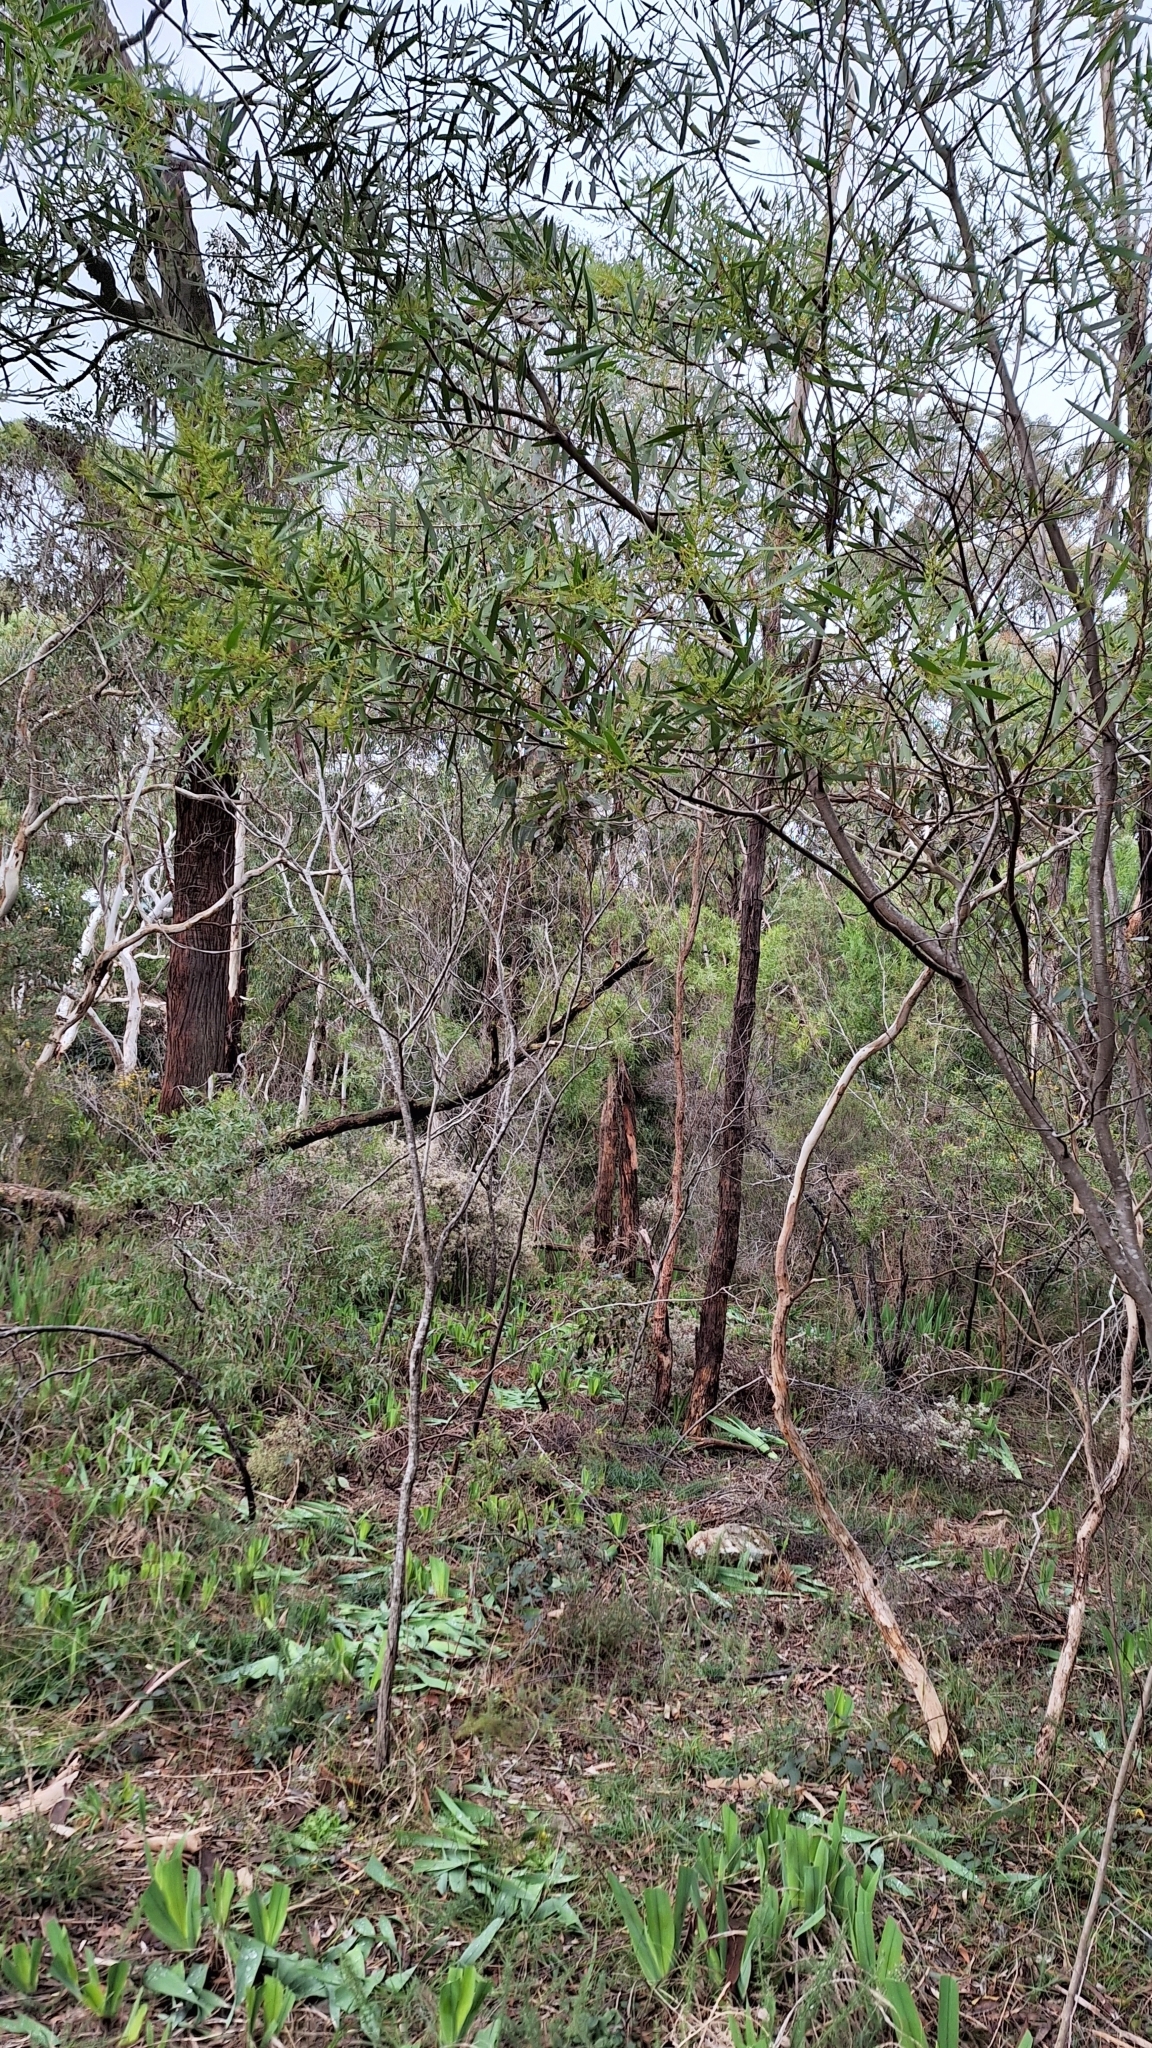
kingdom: Plantae
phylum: Tracheophyta
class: Magnoliopsida
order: Fabales
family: Fabaceae
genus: Acacia
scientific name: Acacia longifolia
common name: Sydney golden wattle
